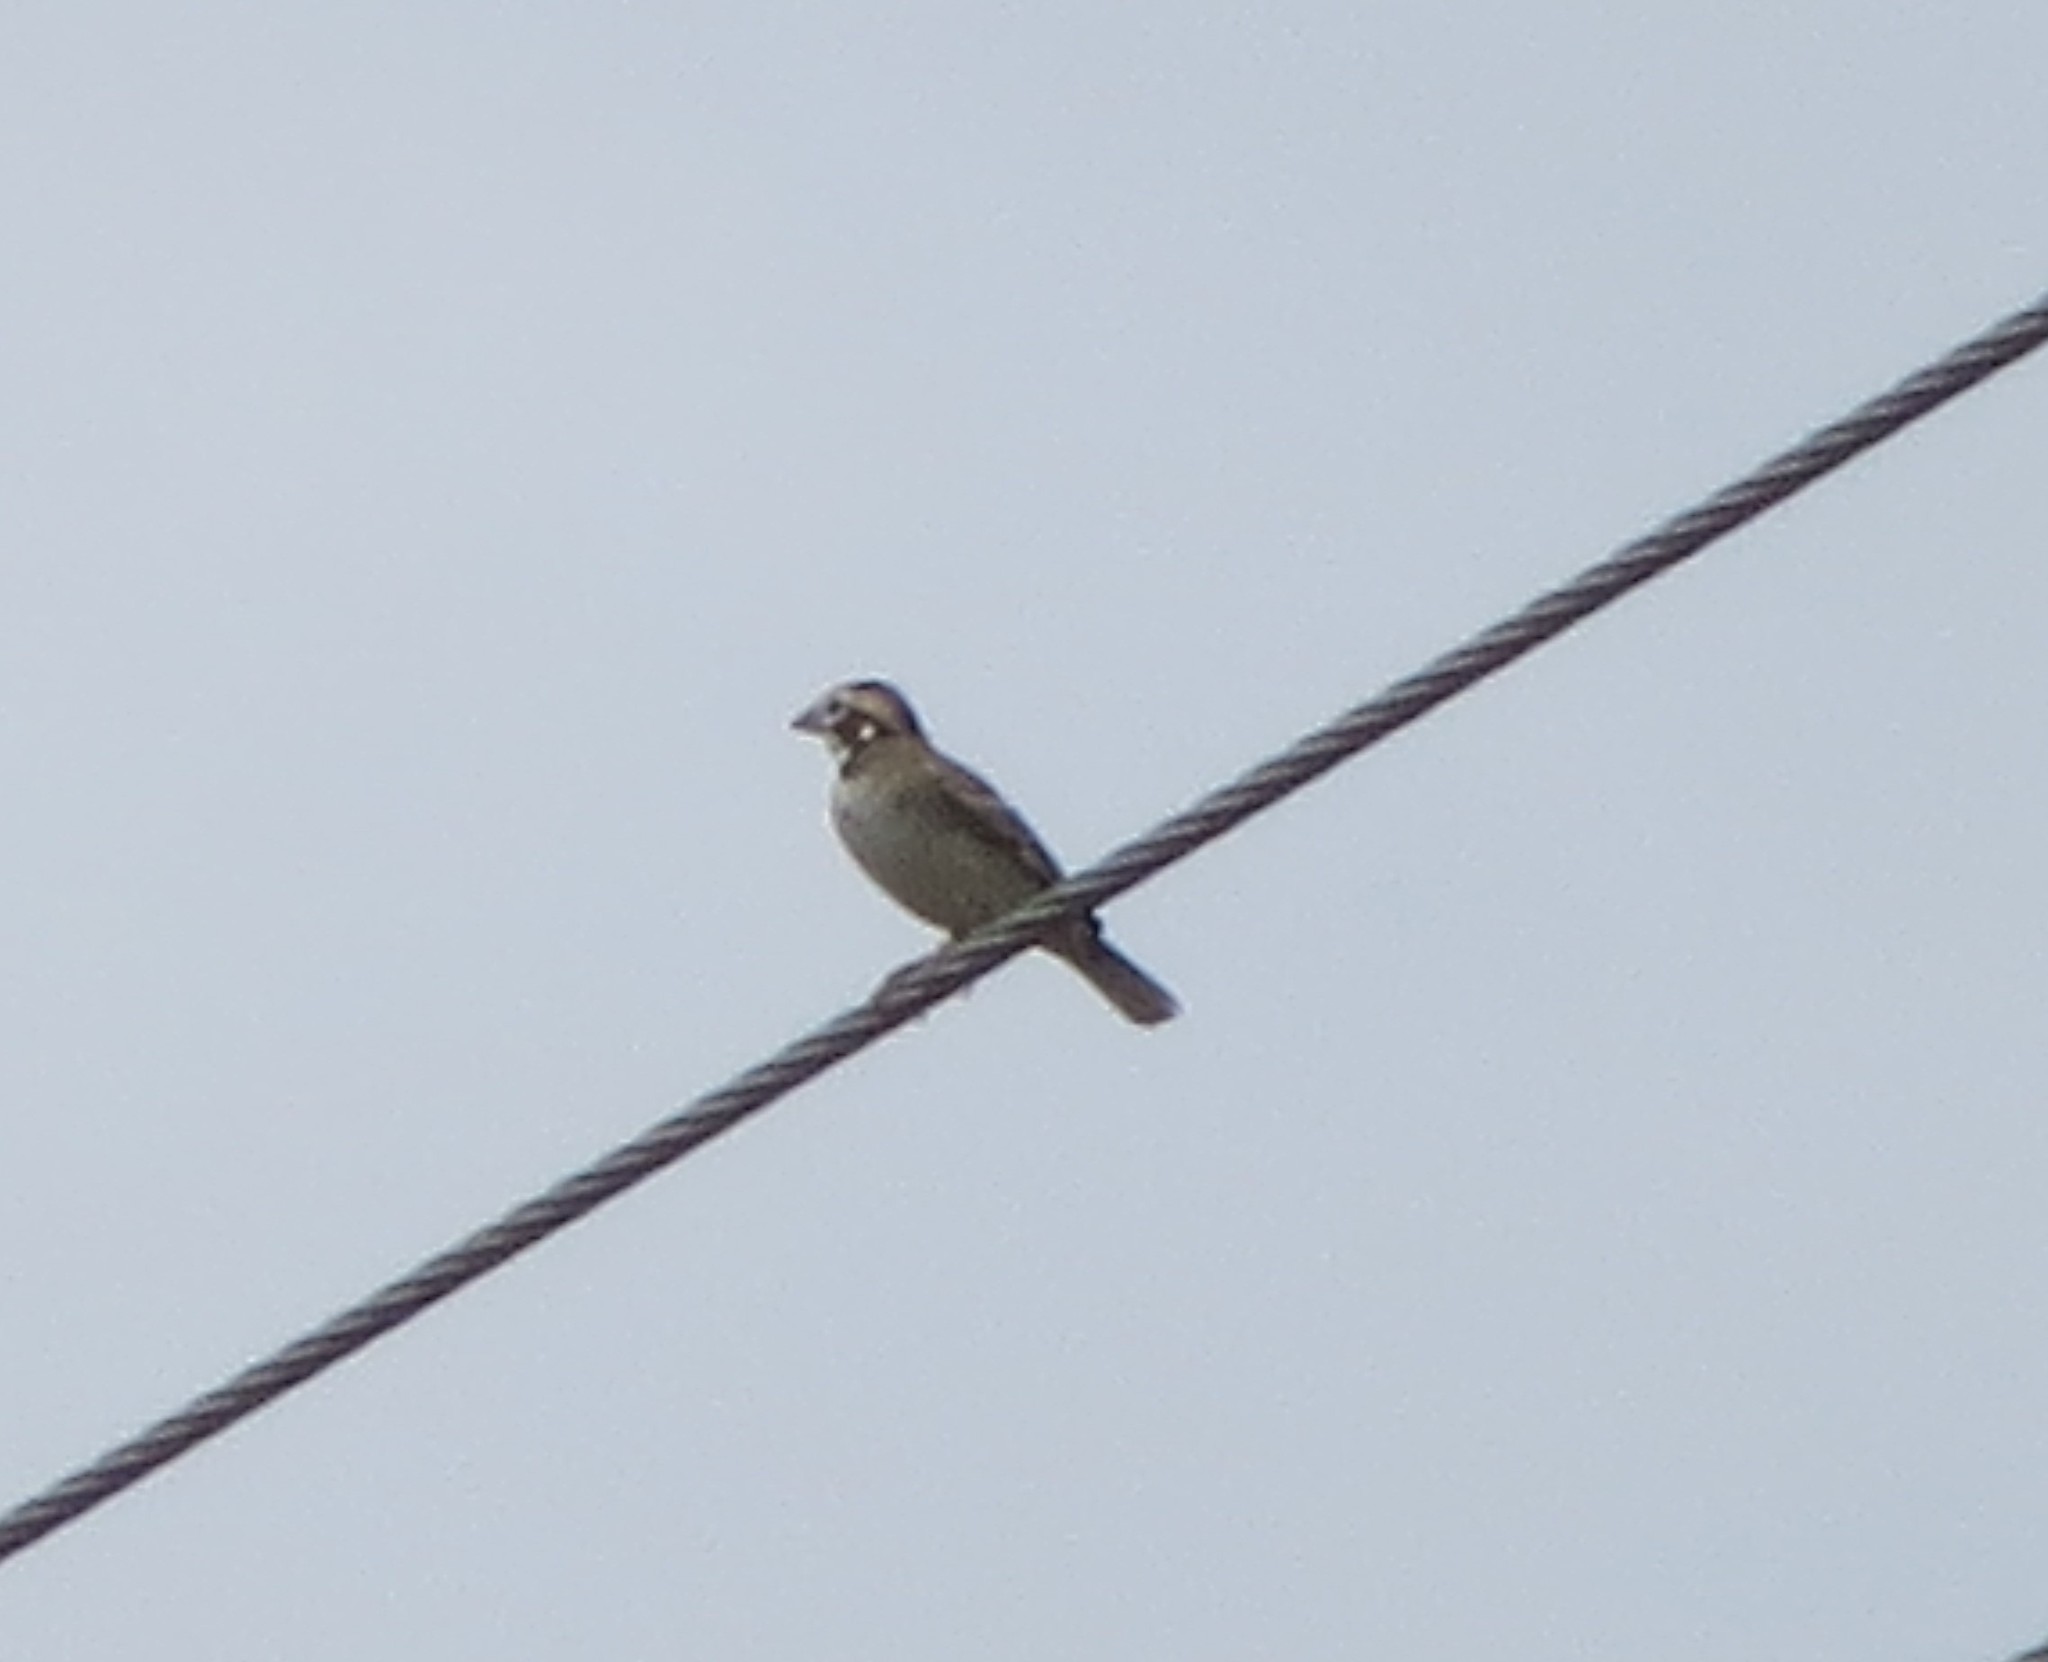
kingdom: Animalia
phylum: Chordata
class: Aves
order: Passeriformes
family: Passerellidae
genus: Chondestes
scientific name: Chondestes grammacus
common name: Lark sparrow
